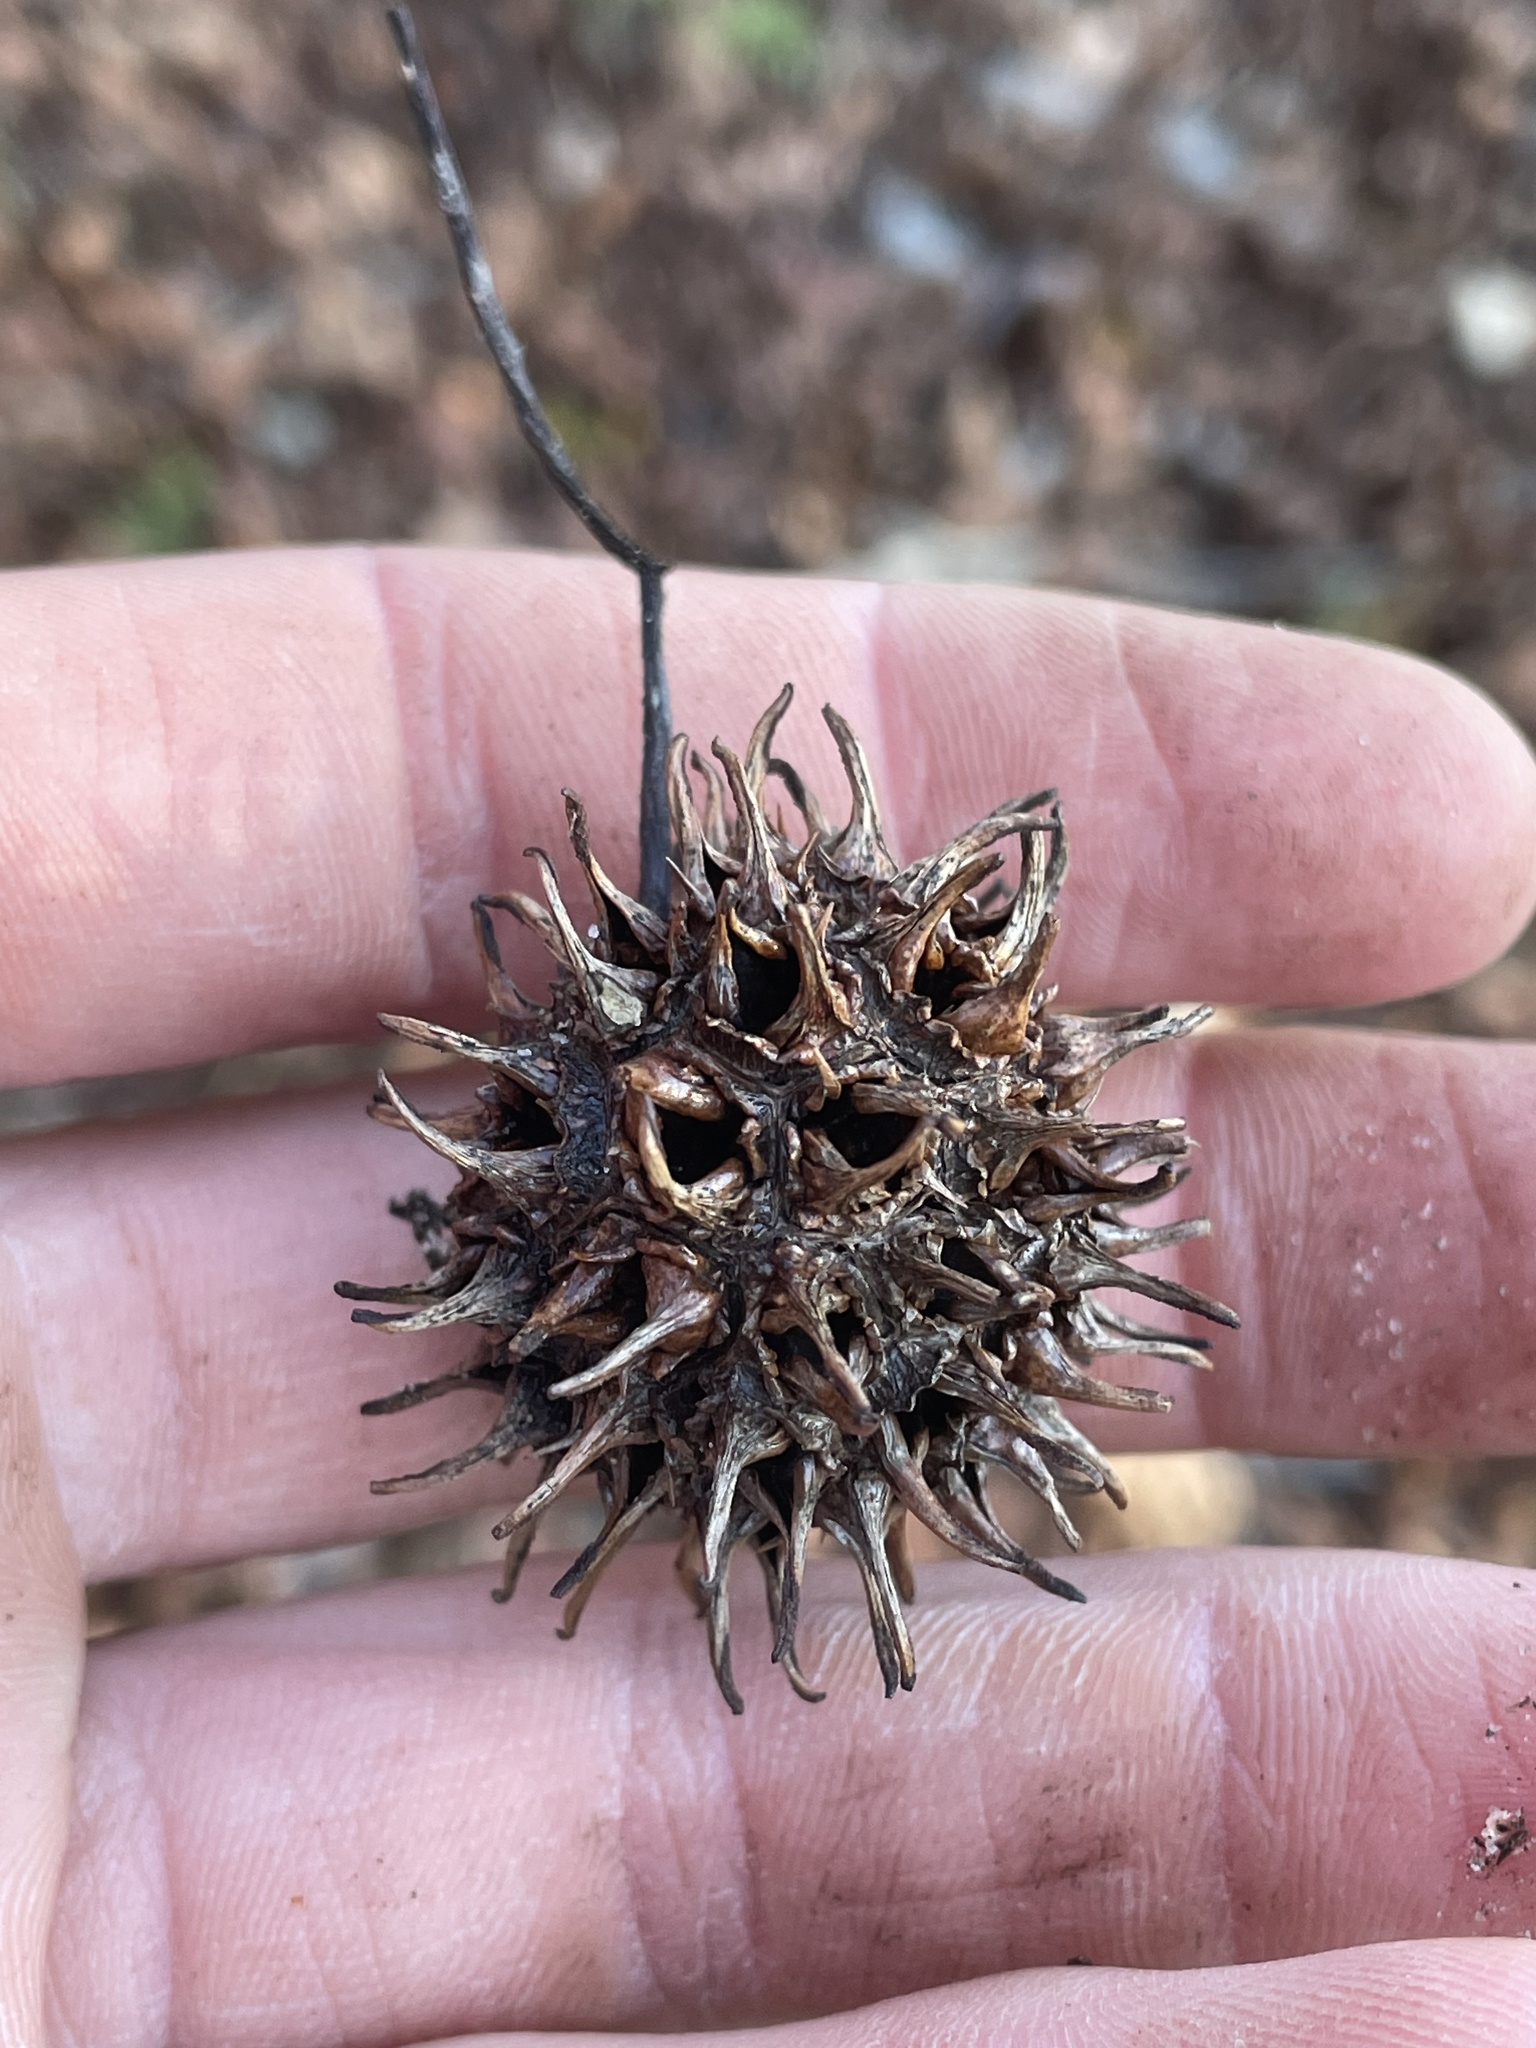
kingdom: Plantae
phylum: Tracheophyta
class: Magnoliopsida
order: Saxifragales
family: Altingiaceae
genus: Liquidambar
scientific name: Liquidambar styraciflua
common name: Sweet gum
